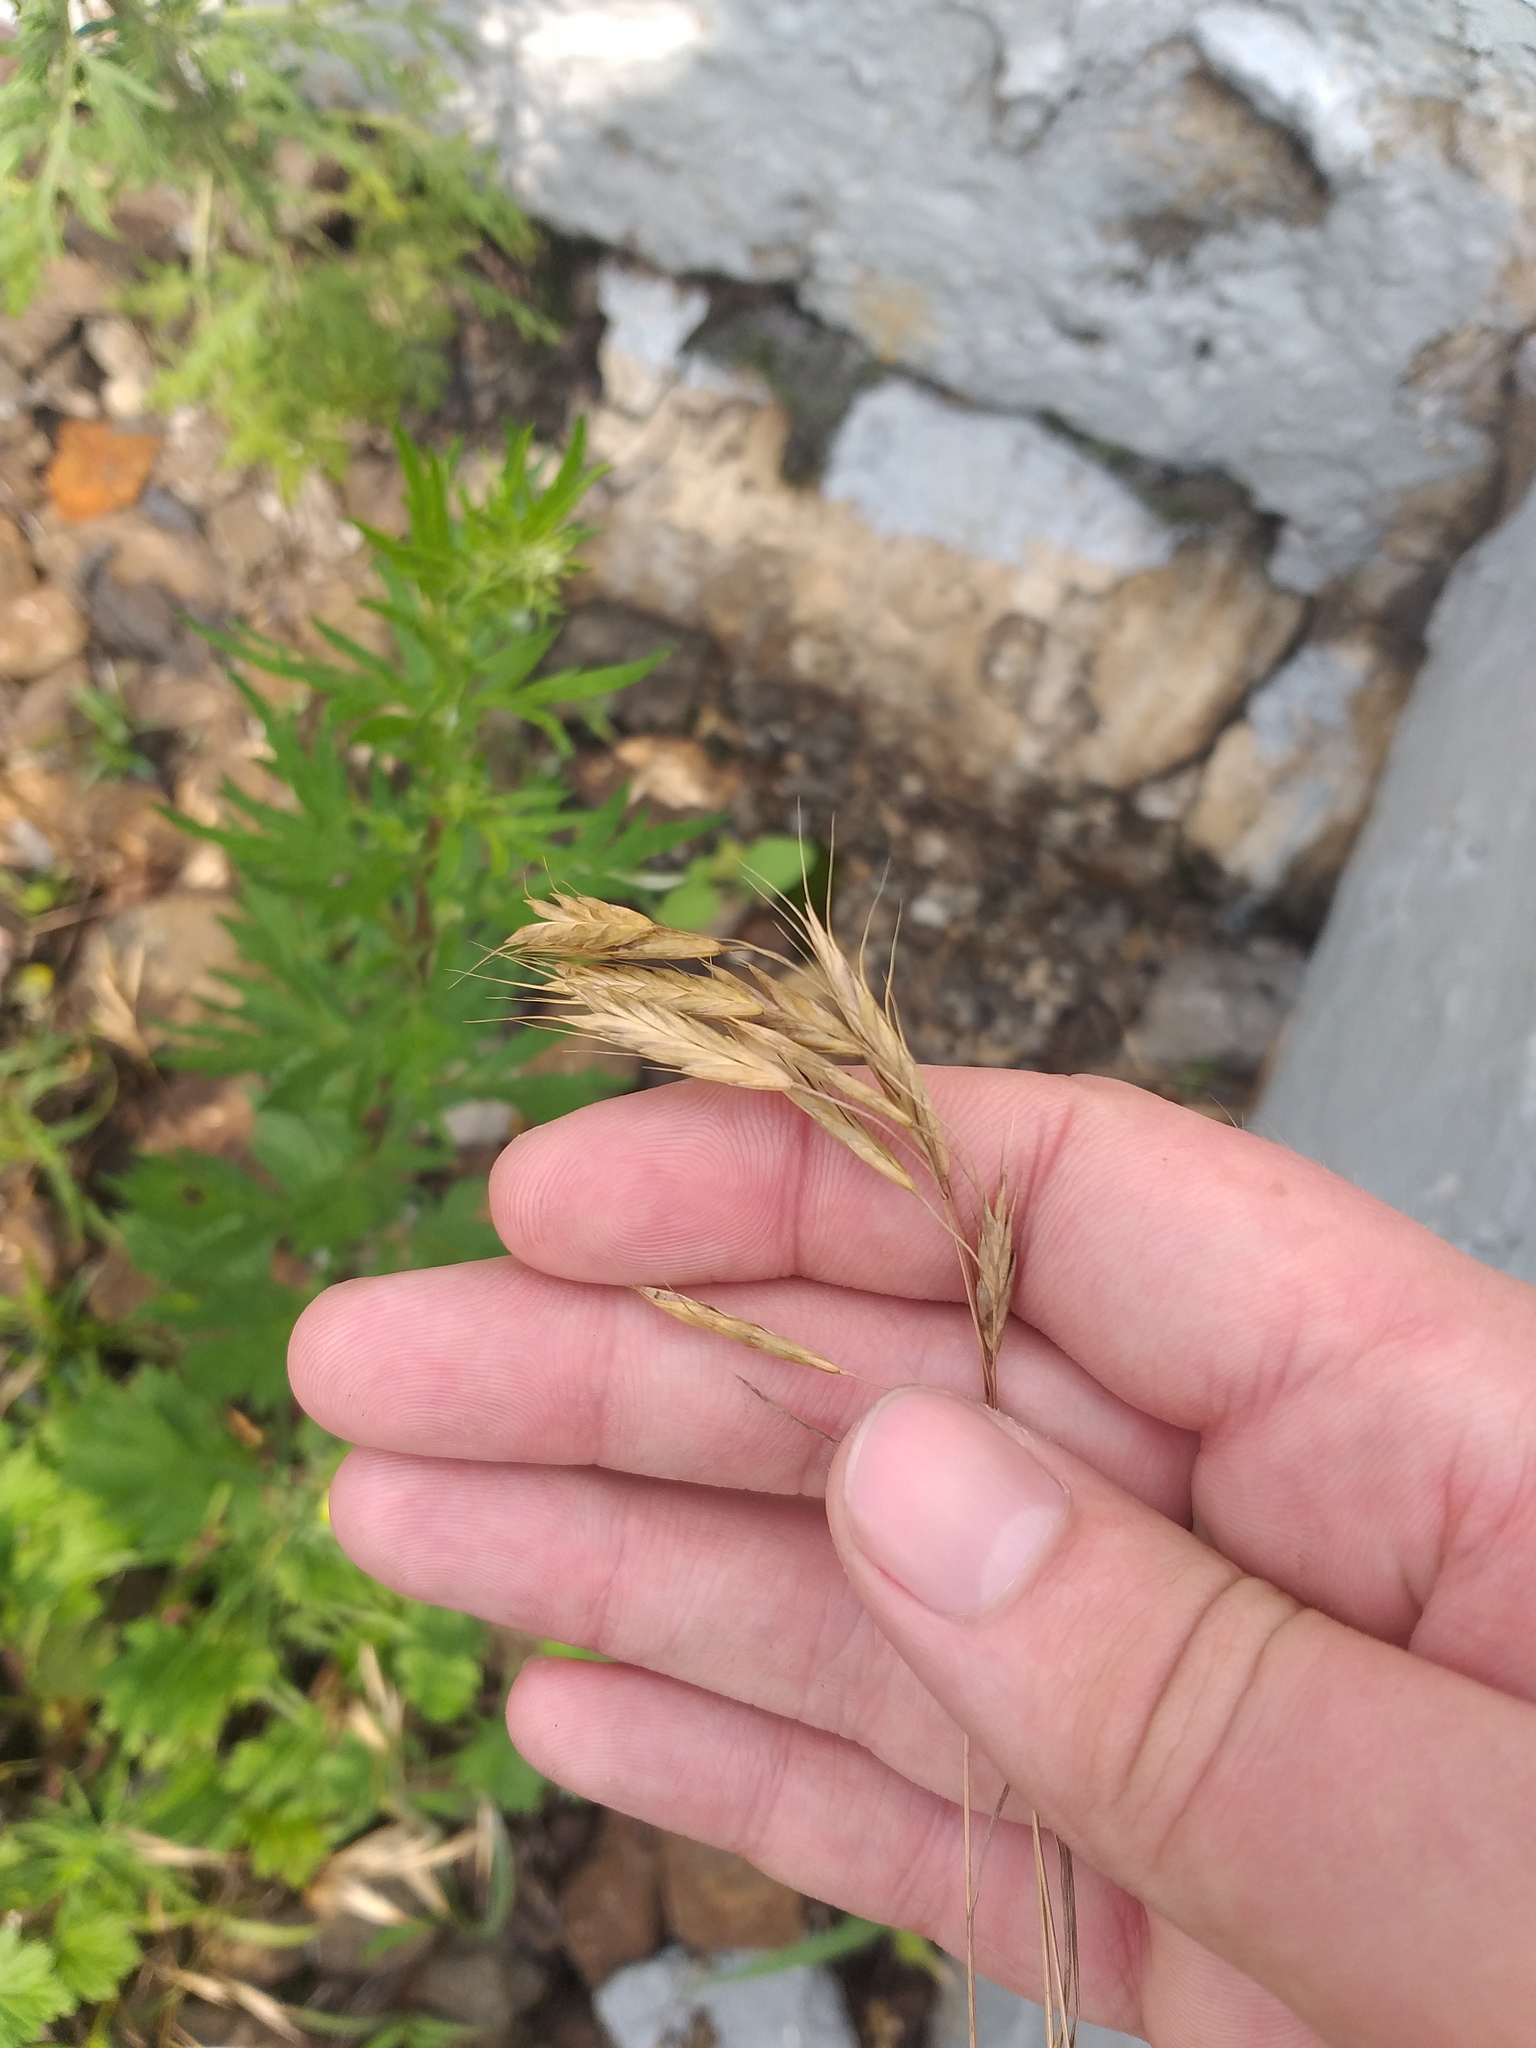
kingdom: Plantae
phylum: Tracheophyta
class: Liliopsida
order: Poales
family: Poaceae
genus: Bromus
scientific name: Bromus japonicus
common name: Japanese brome
